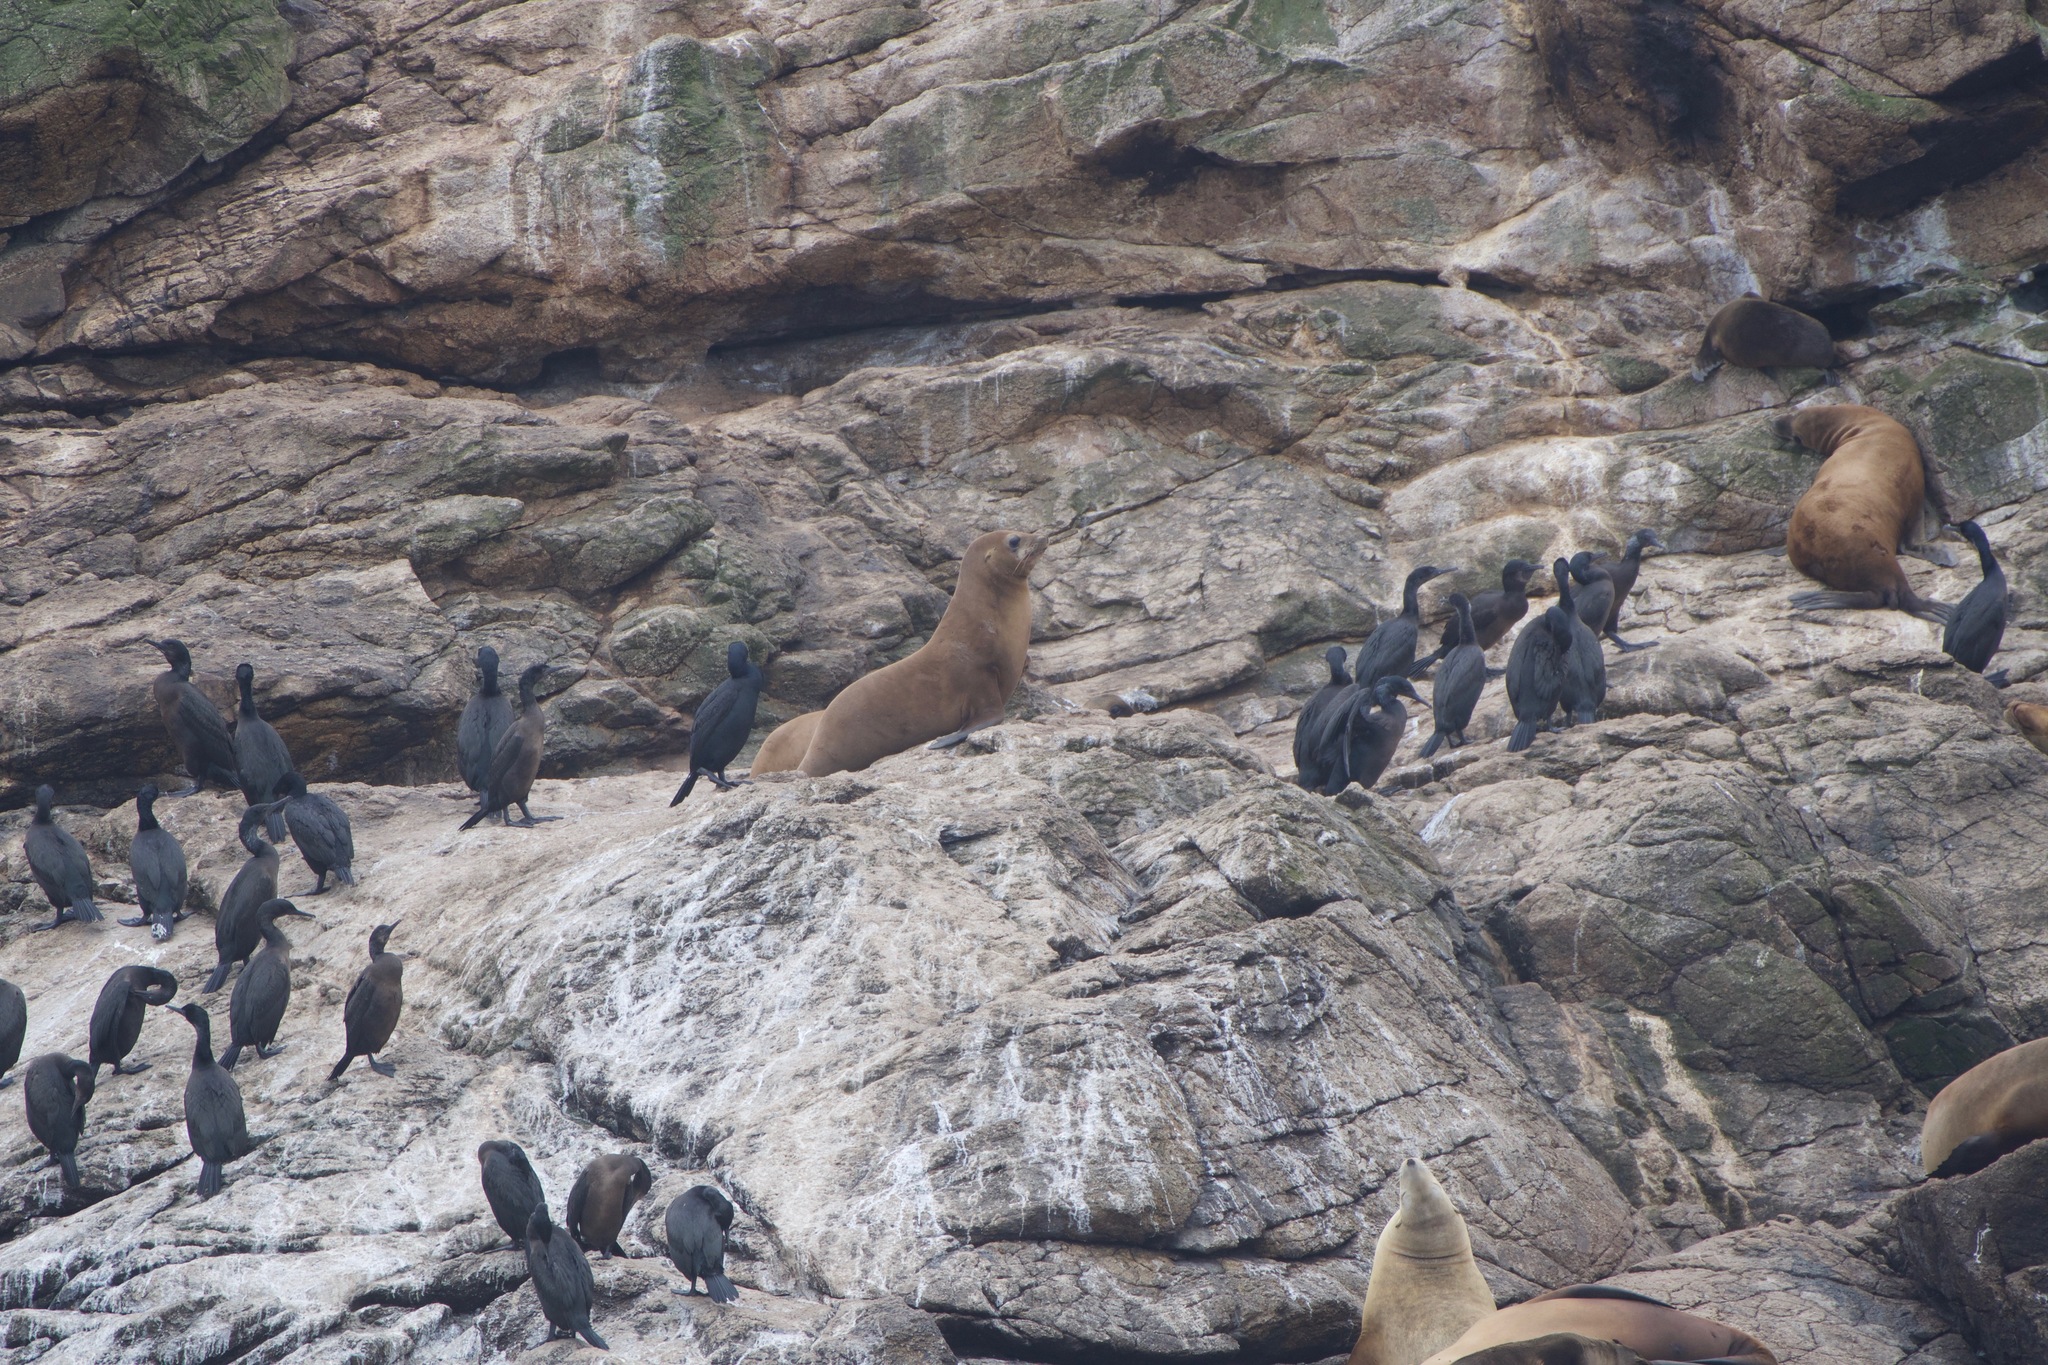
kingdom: Animalia
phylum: Chordata
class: Mammalia
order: Carnivora
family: Otariidae
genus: Eumetopias
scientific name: Eumetopias jubatus
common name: Steller sea lion
